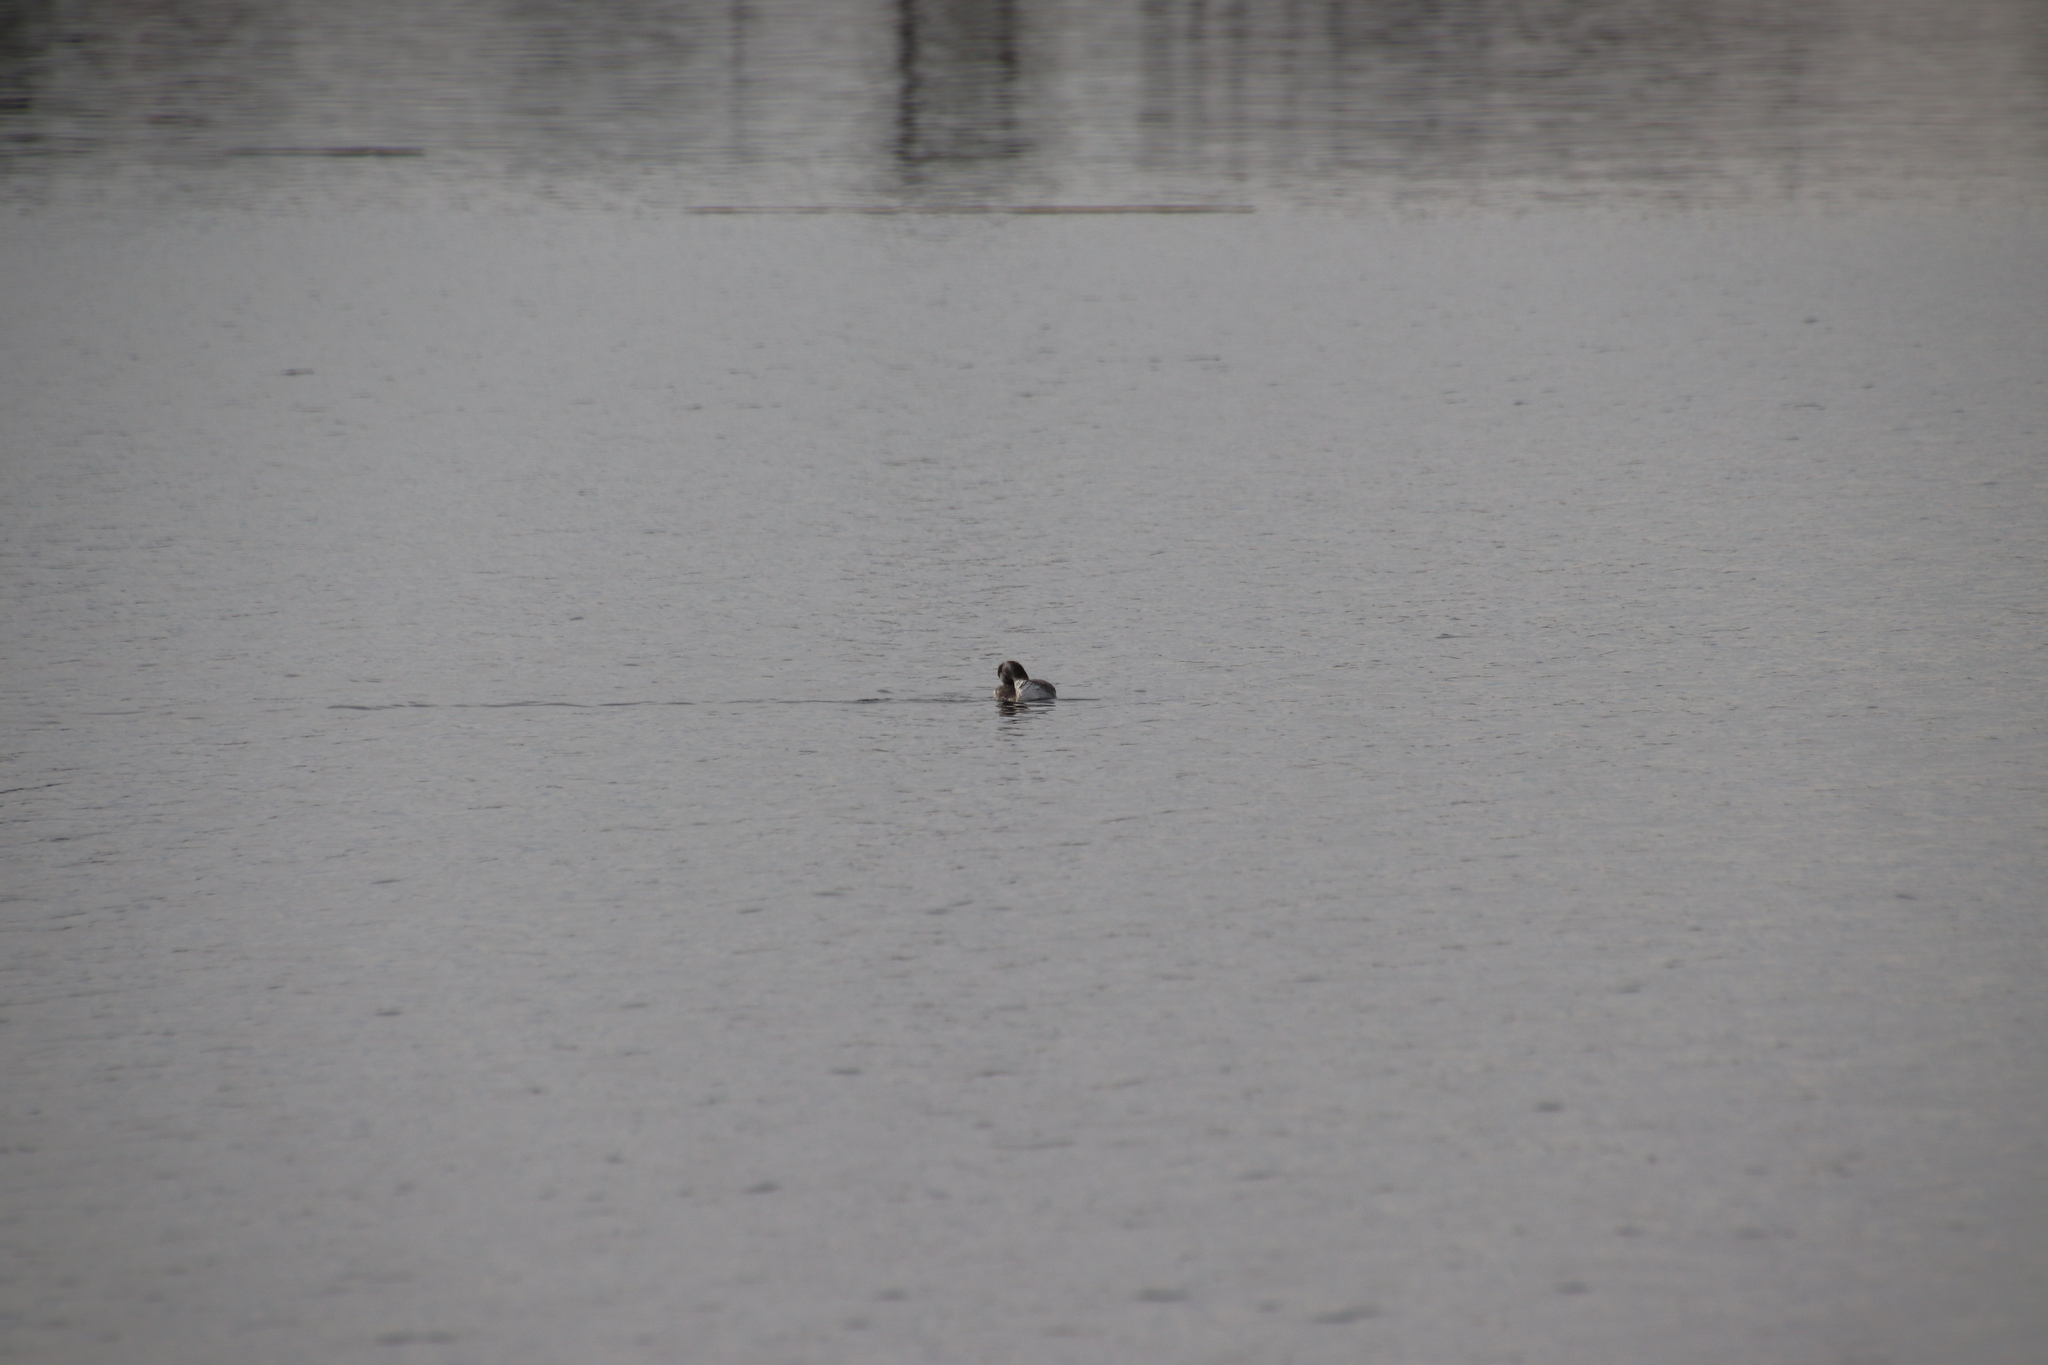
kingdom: Animalia
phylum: Chordata
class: Aves
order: Podicipediformes
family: Podicipedidae
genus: Podiceps
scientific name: Podiceps auritus
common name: Horned grebe
